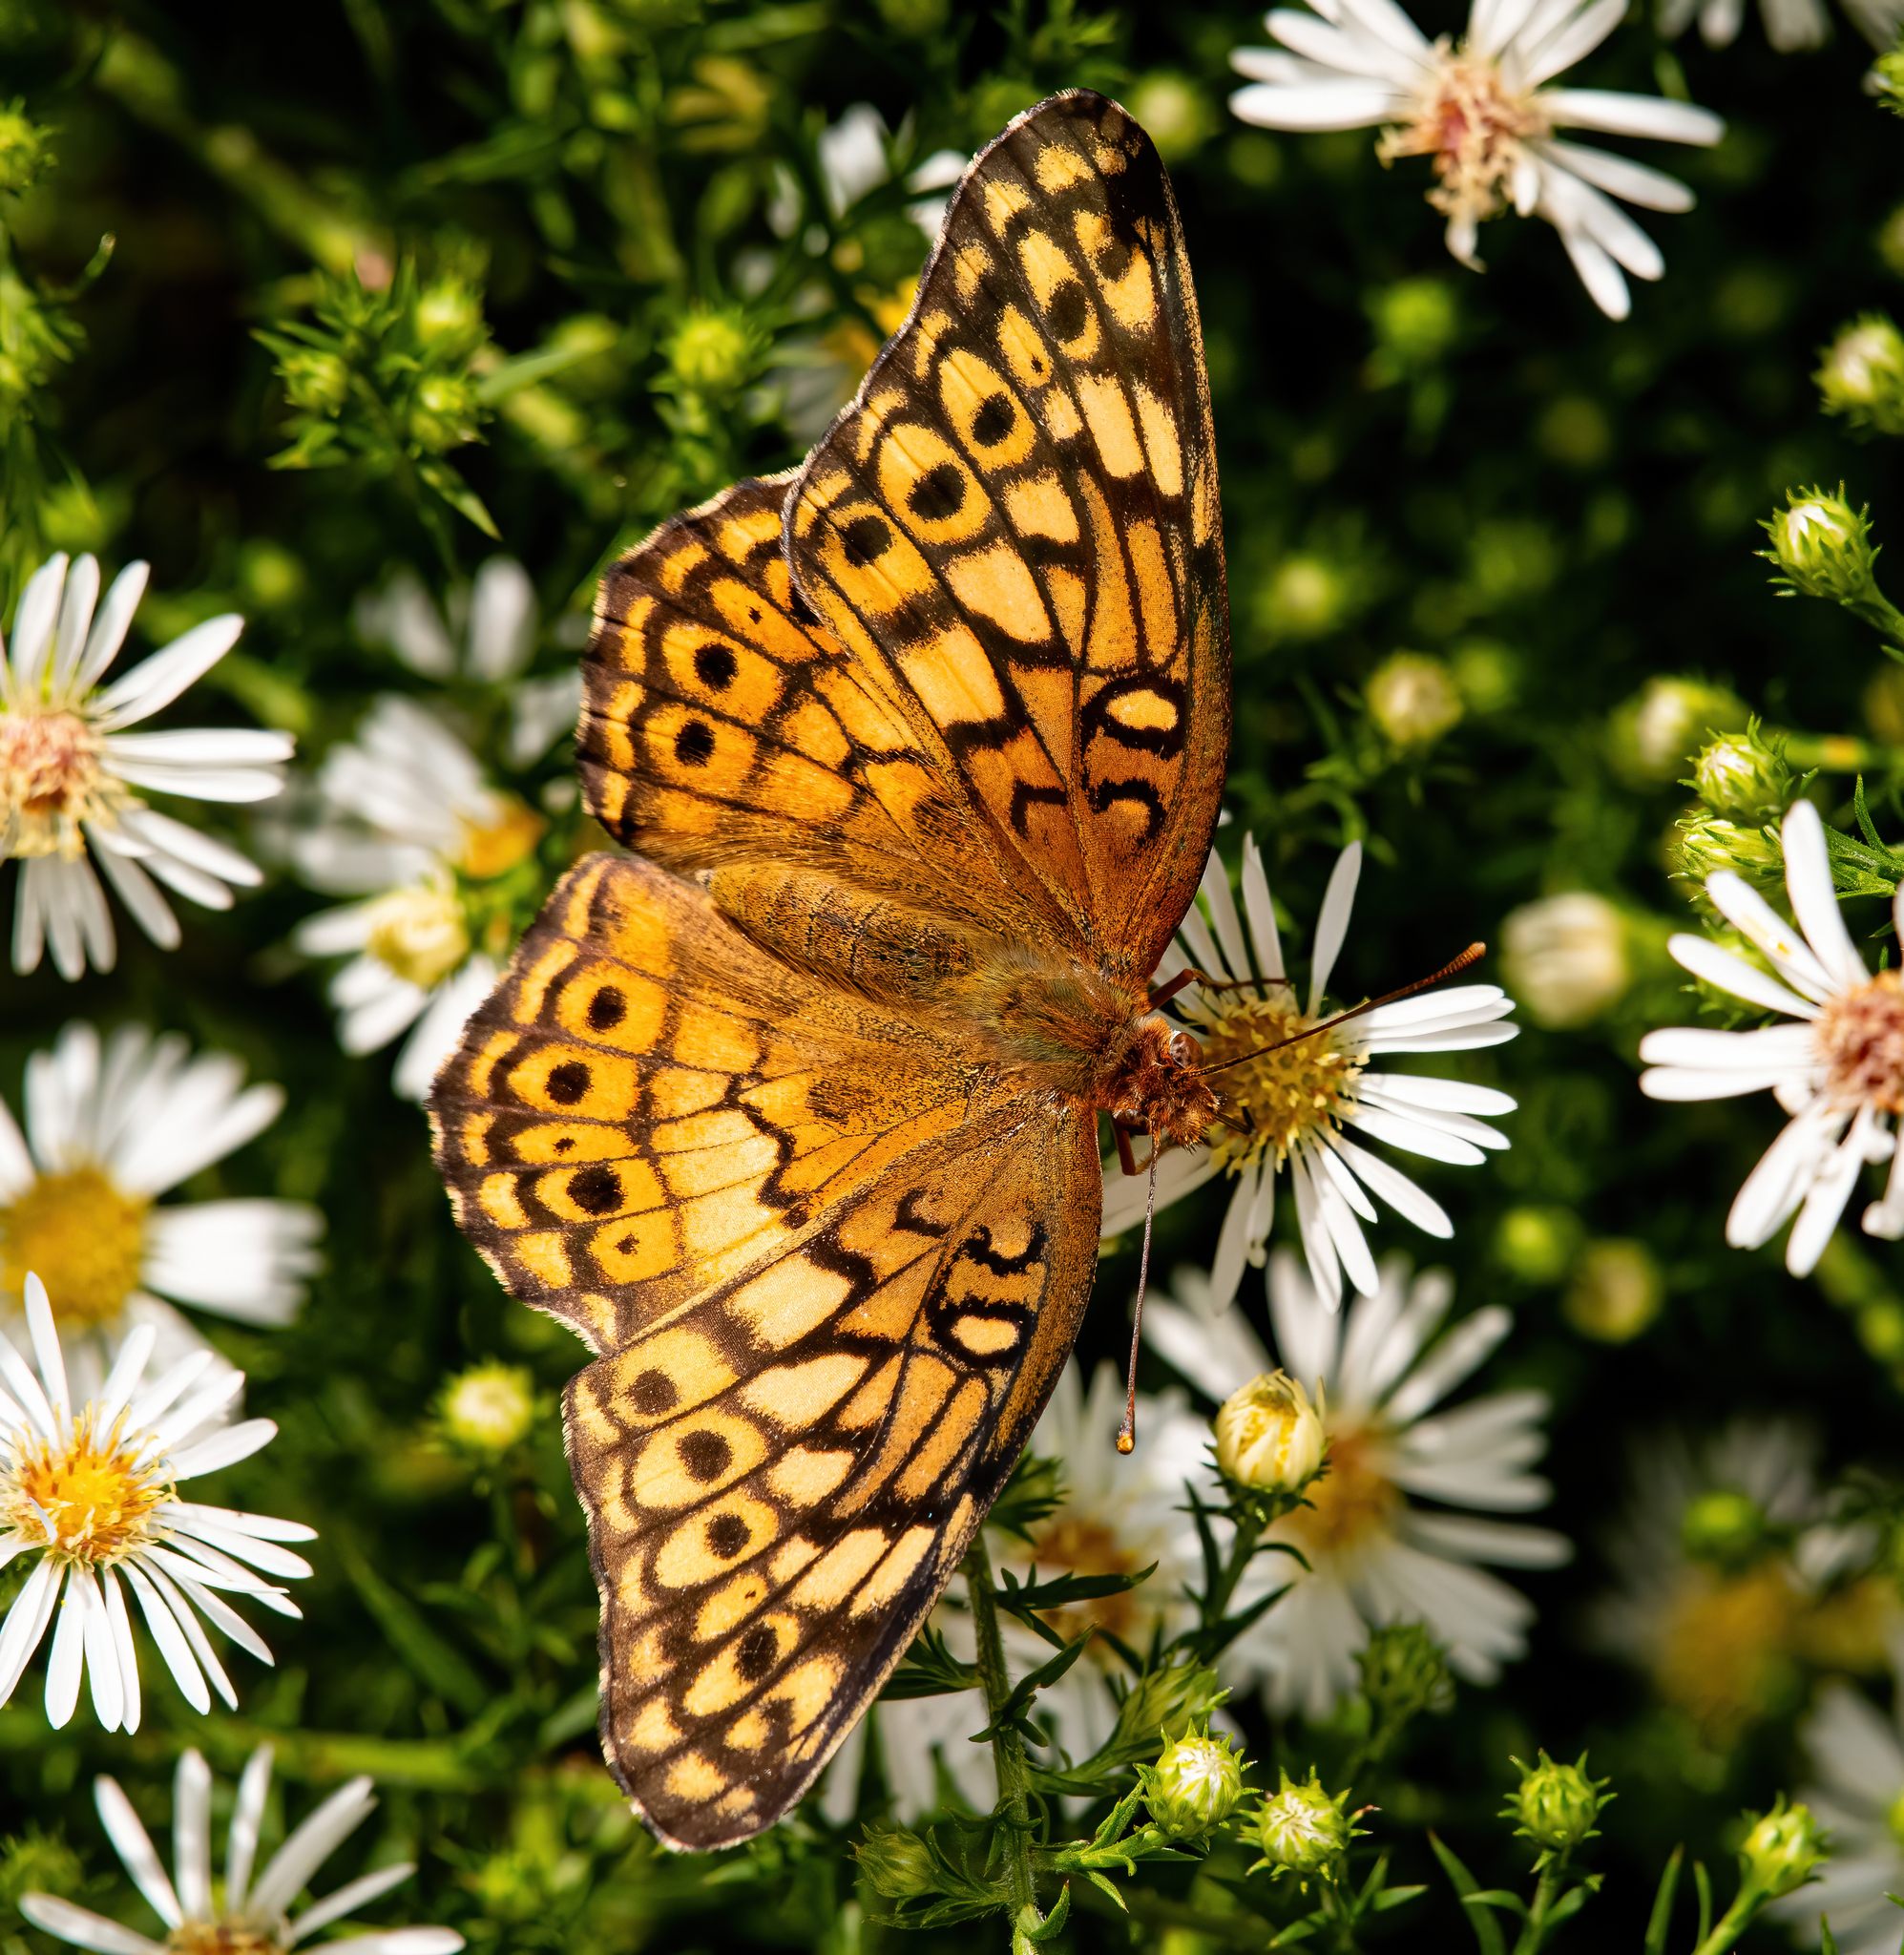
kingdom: Animalia
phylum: Arthropoda
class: Insecta
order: Lepidoptera
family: Nymphalidae
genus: Euptoieta
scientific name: Euptoieta claudia
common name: Variegated fritillary
